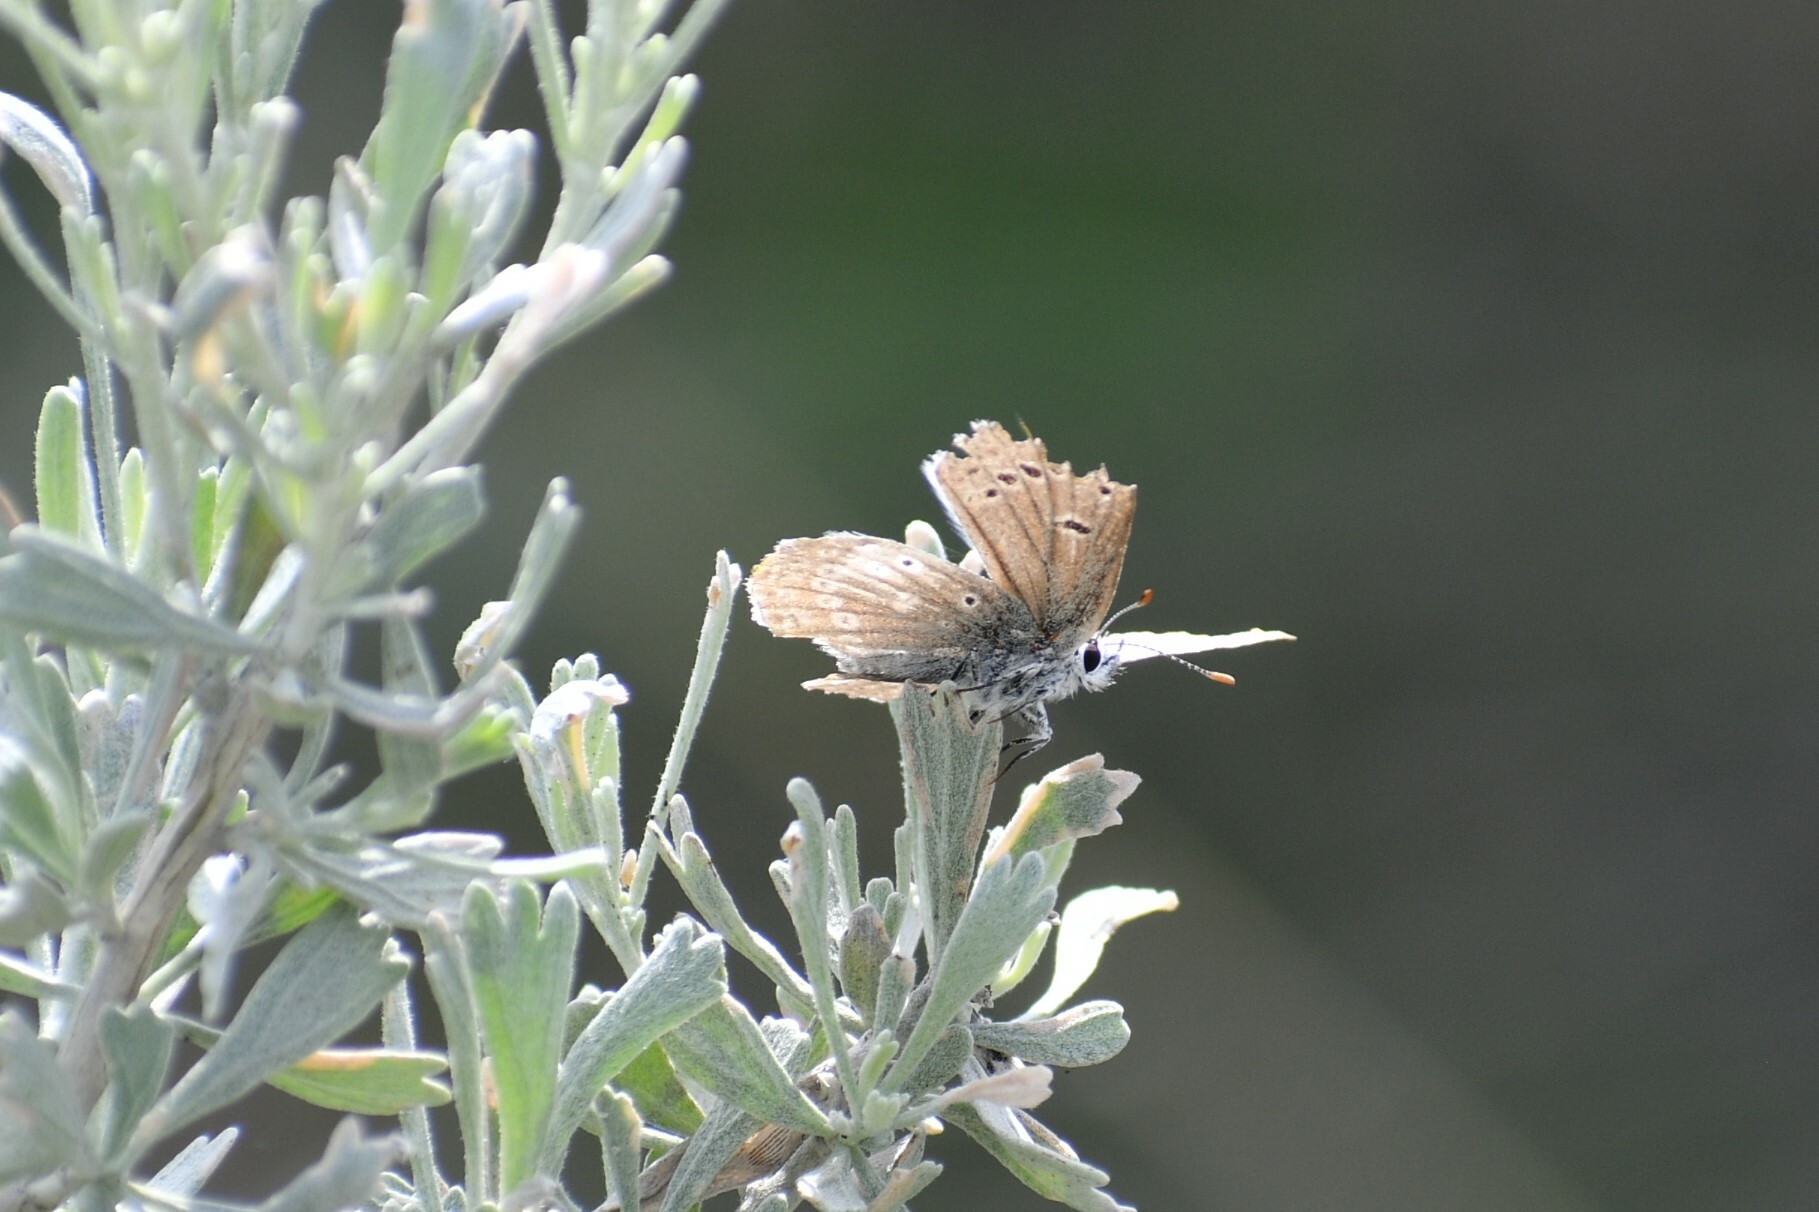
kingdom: Animalia
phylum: Arthropoda
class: Insecta
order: Lepidoptera
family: Lycaenidae
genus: Icaricia
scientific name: Icaricia icarioides
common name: Boisduval's blue
